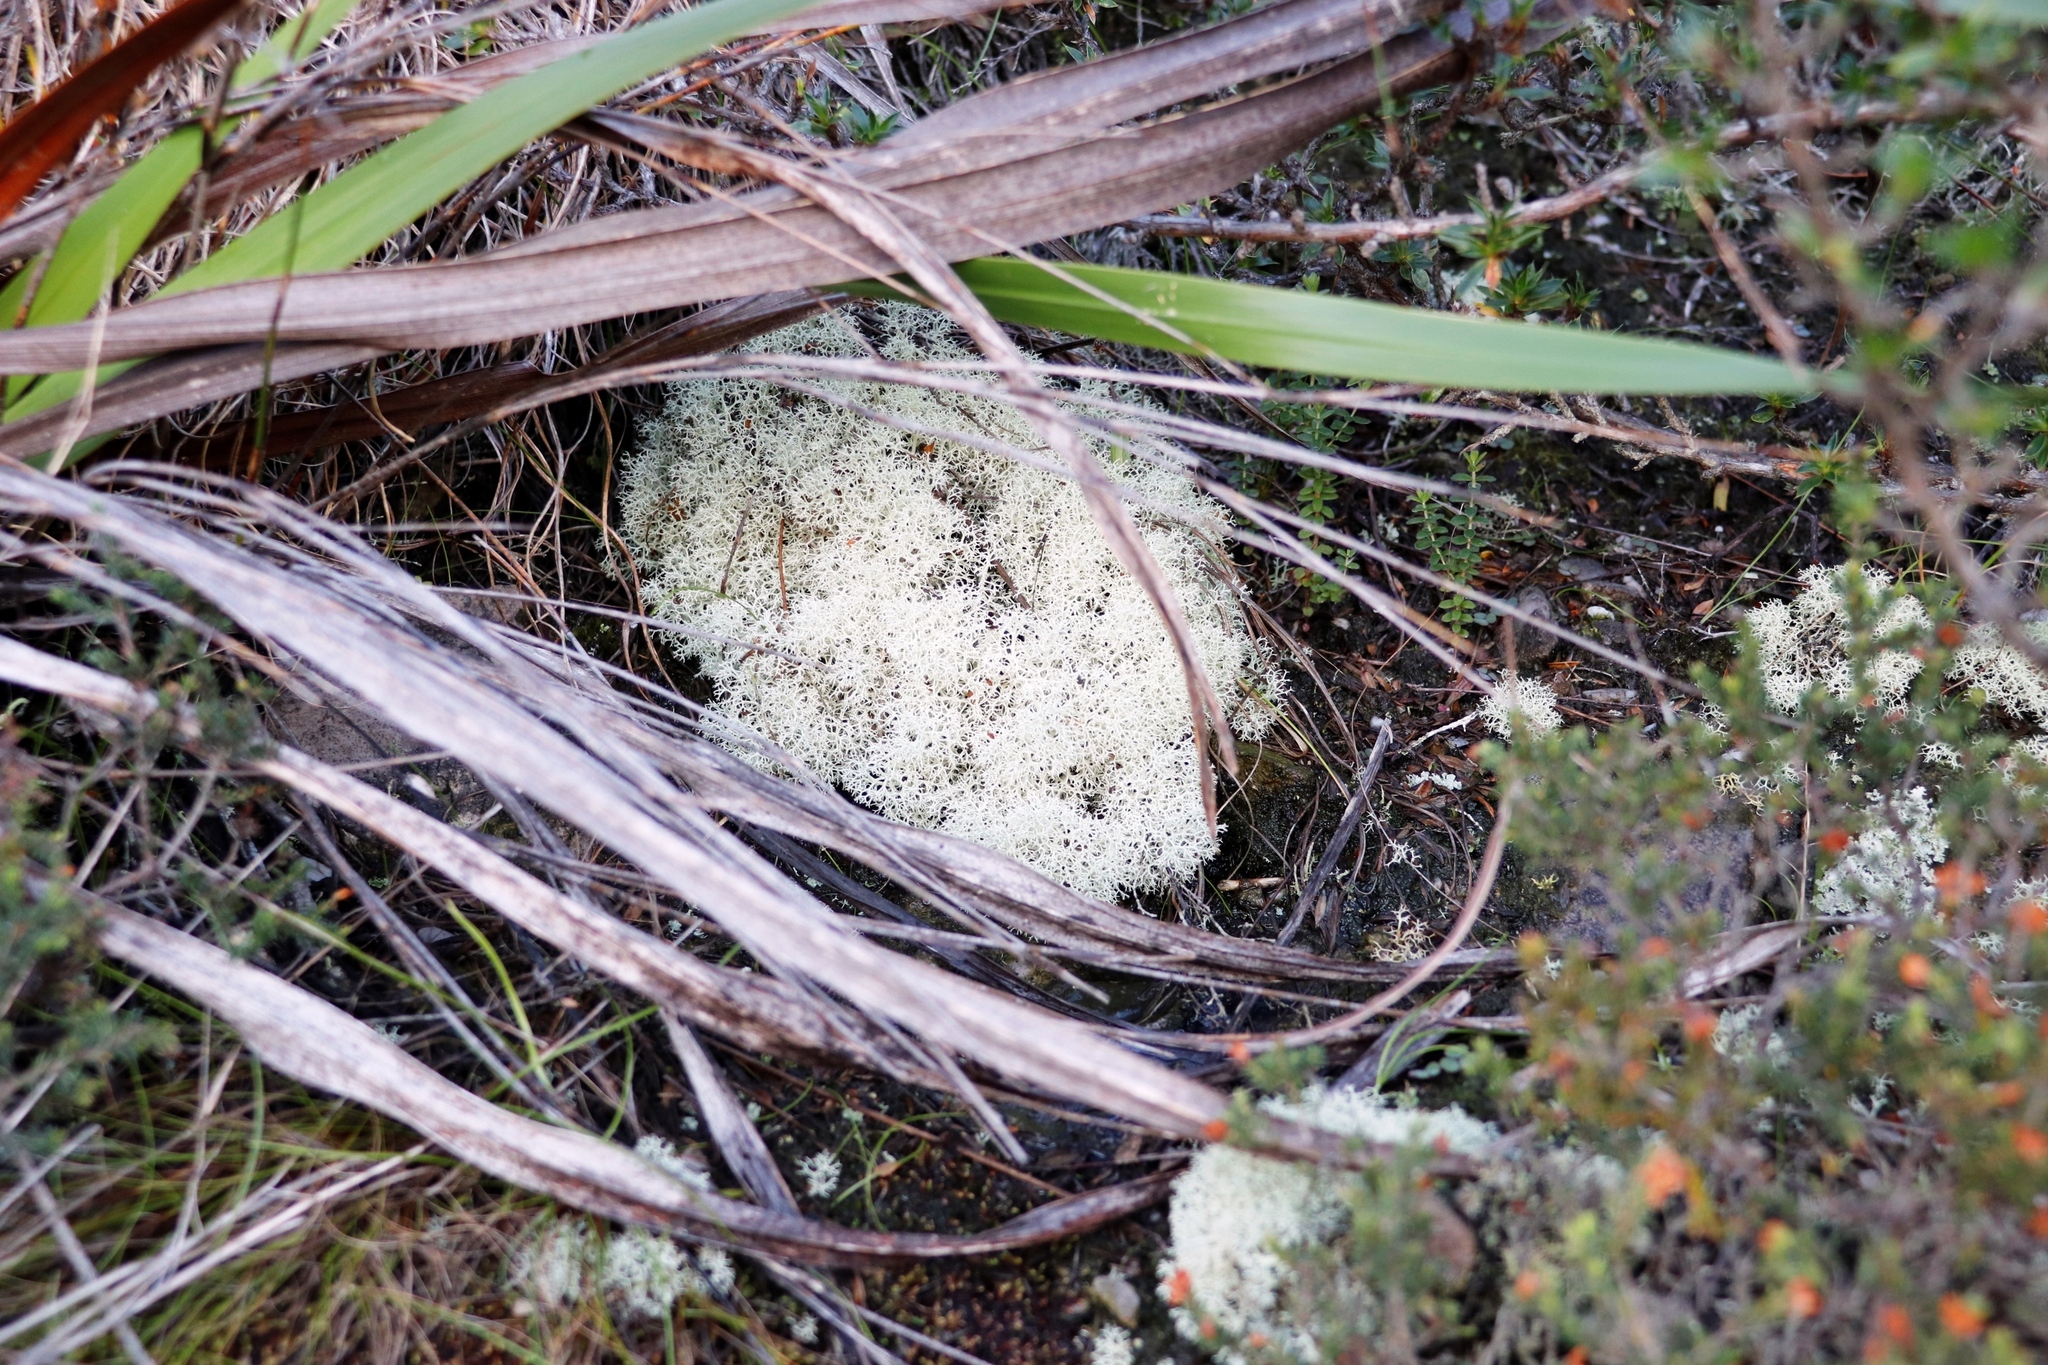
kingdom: Fungi
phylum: Ascomycota
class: Lecanoromycetes
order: Lecanorales
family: Cladoniaceae
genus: Cladonia
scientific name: Cladonia confusa
